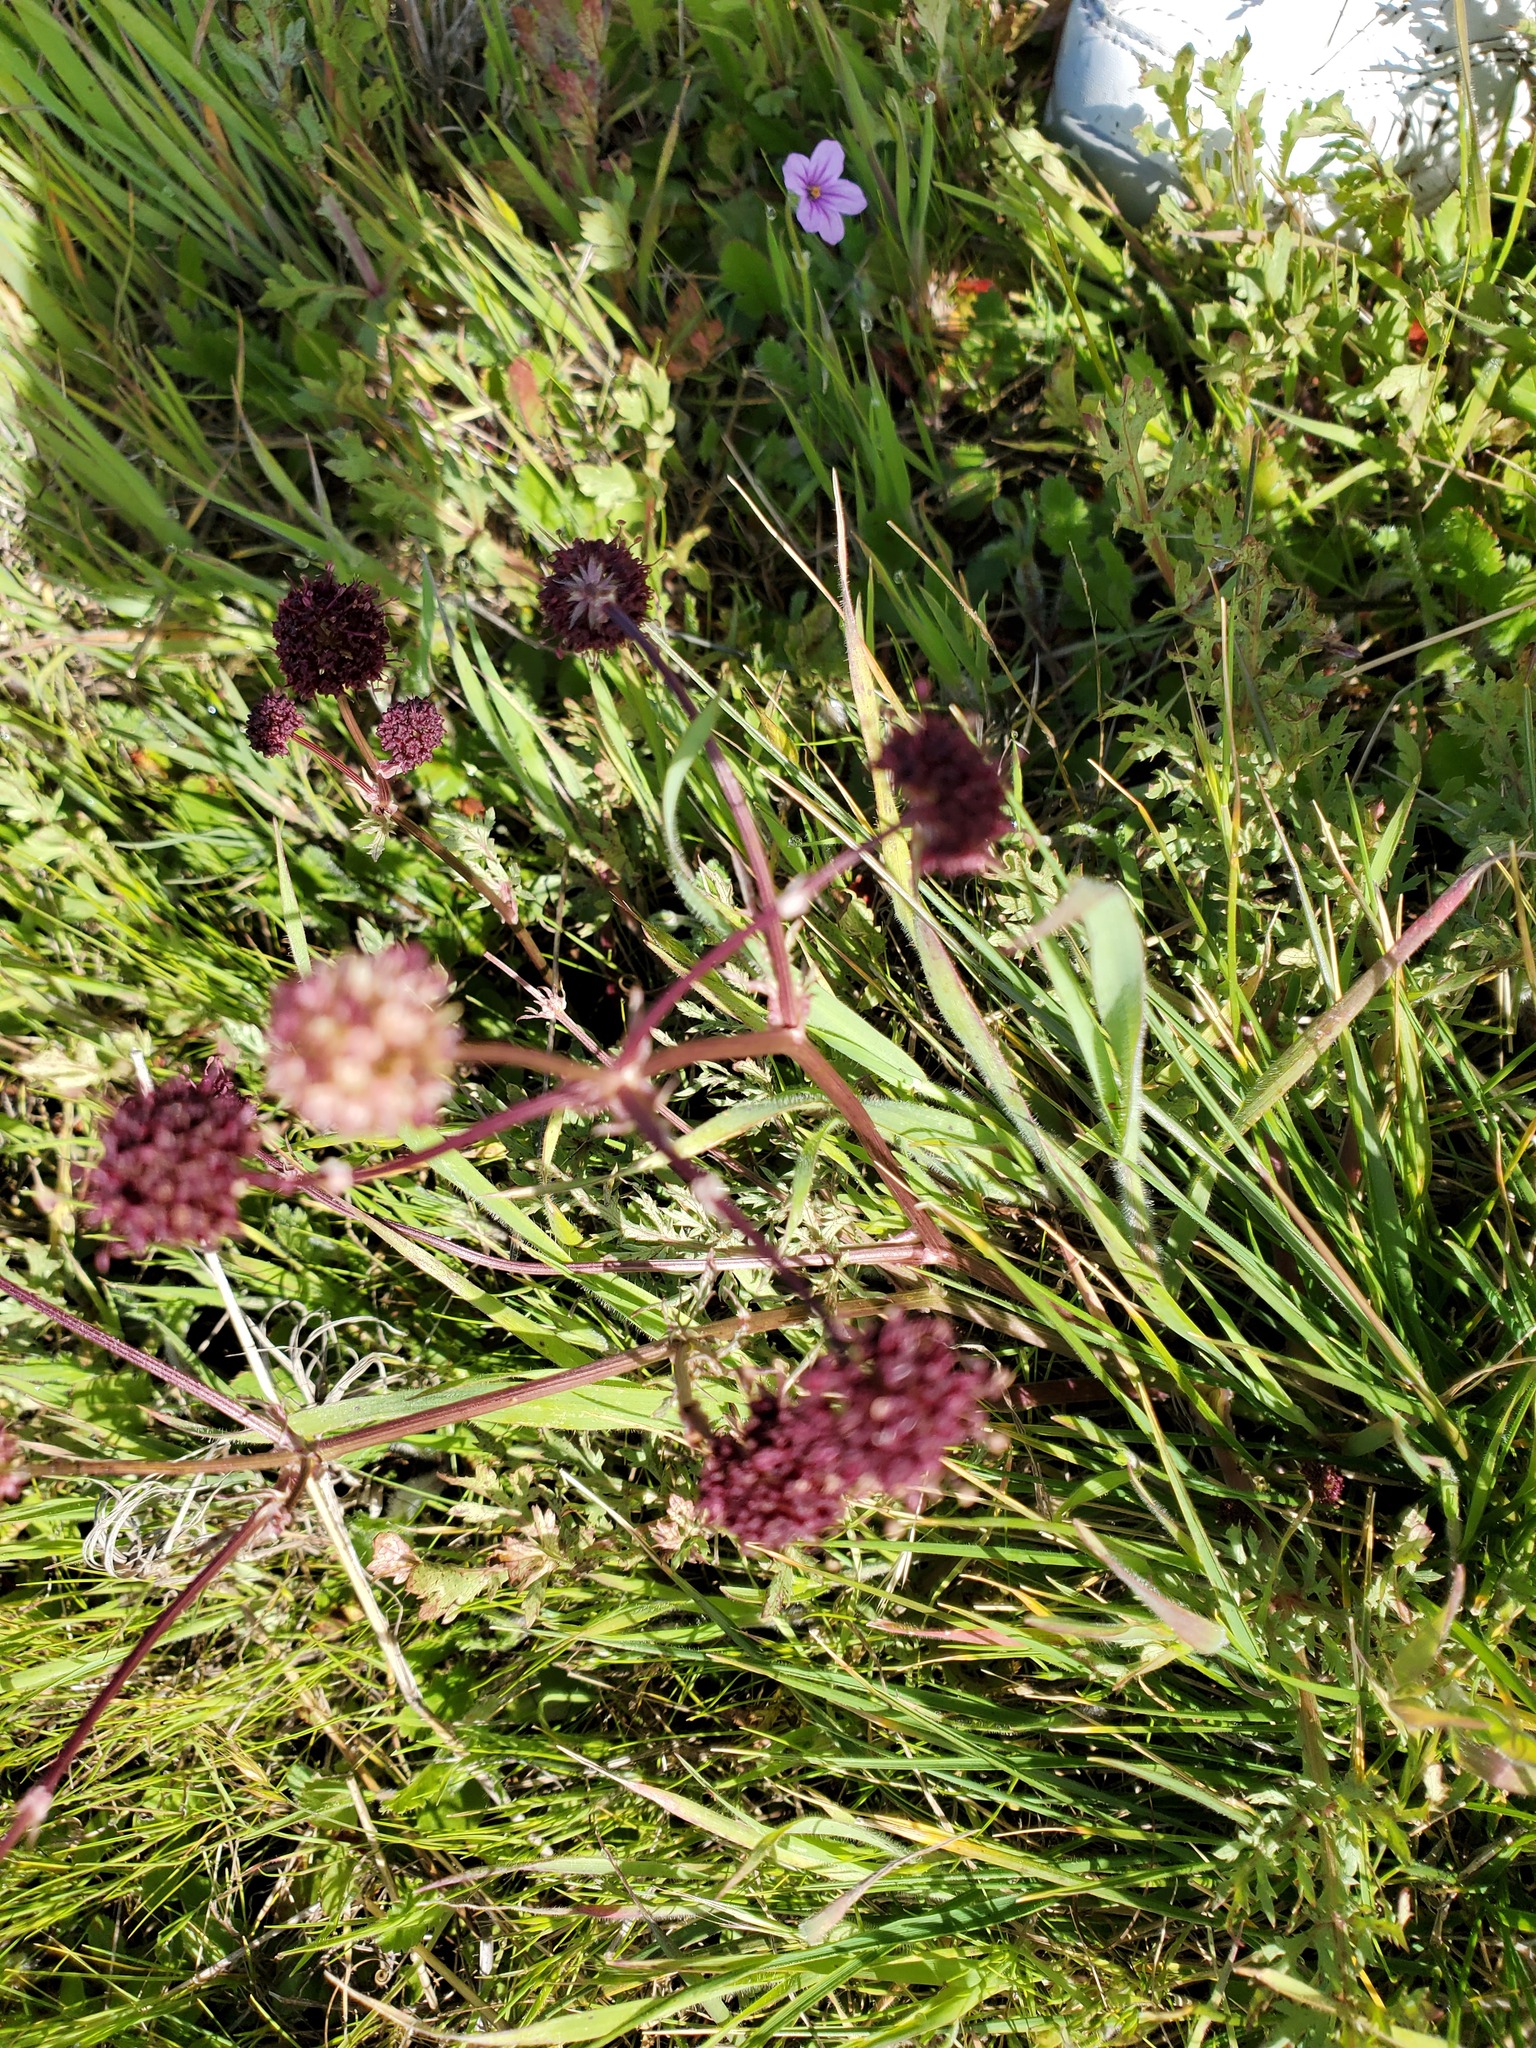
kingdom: Plantae
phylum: Tracheophyta
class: Magnoliopsida
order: Apiales
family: Apiaceae
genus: Sanicula
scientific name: Sanicula bipinnatifida
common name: Shoe-buttons
